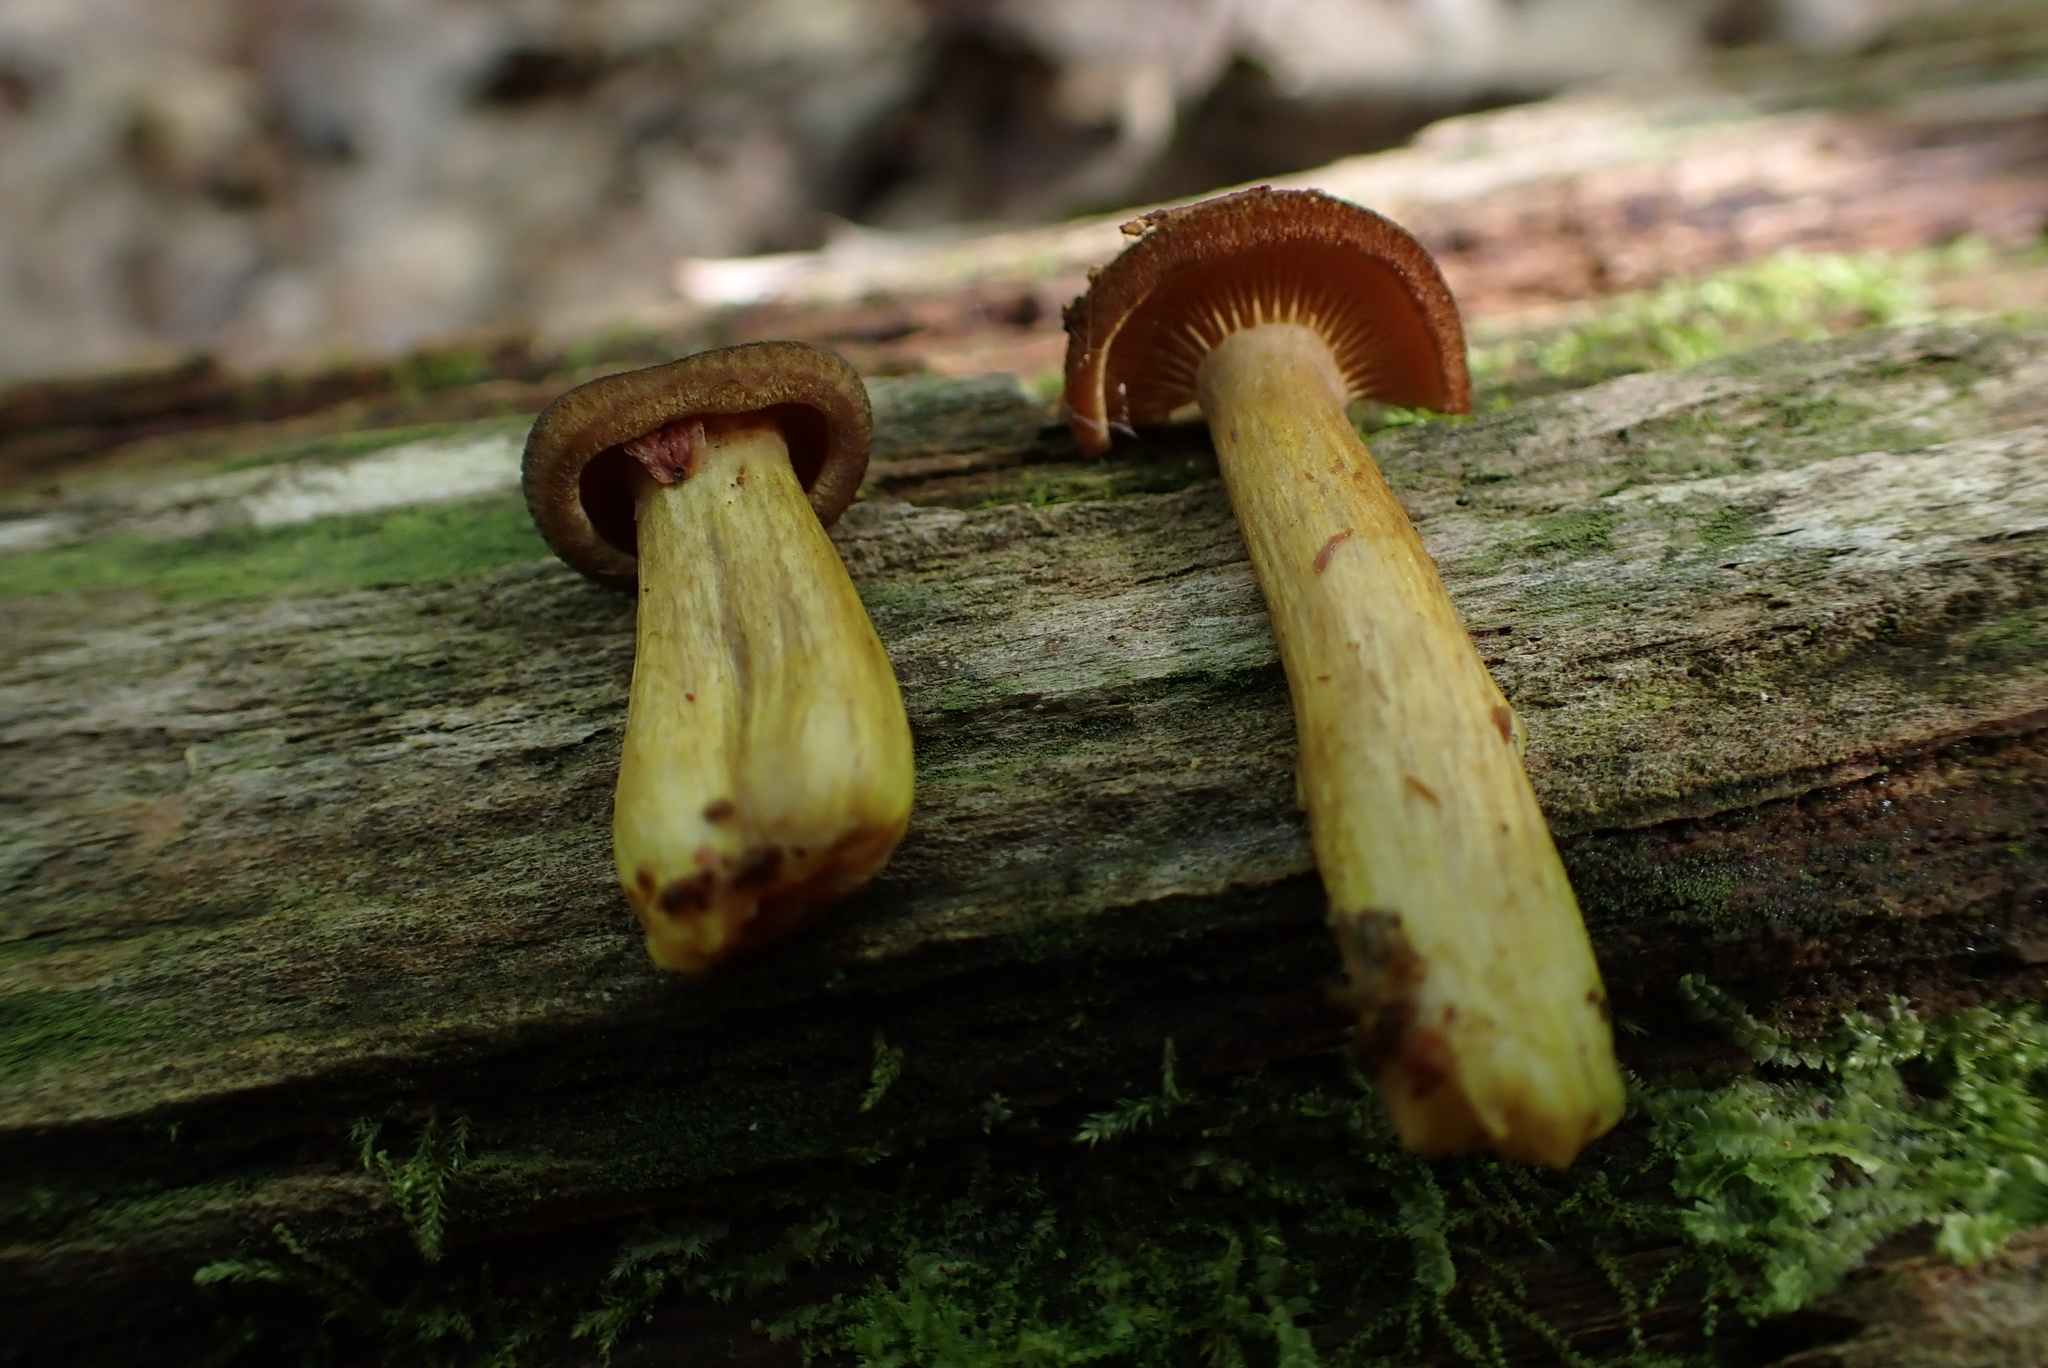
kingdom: Fungi
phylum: Basidiomycota
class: Agaricomycetes
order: Agaricales
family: Tricholomataceae
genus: Tricholomopsis
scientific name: Tricholomopsis sulfureoides
